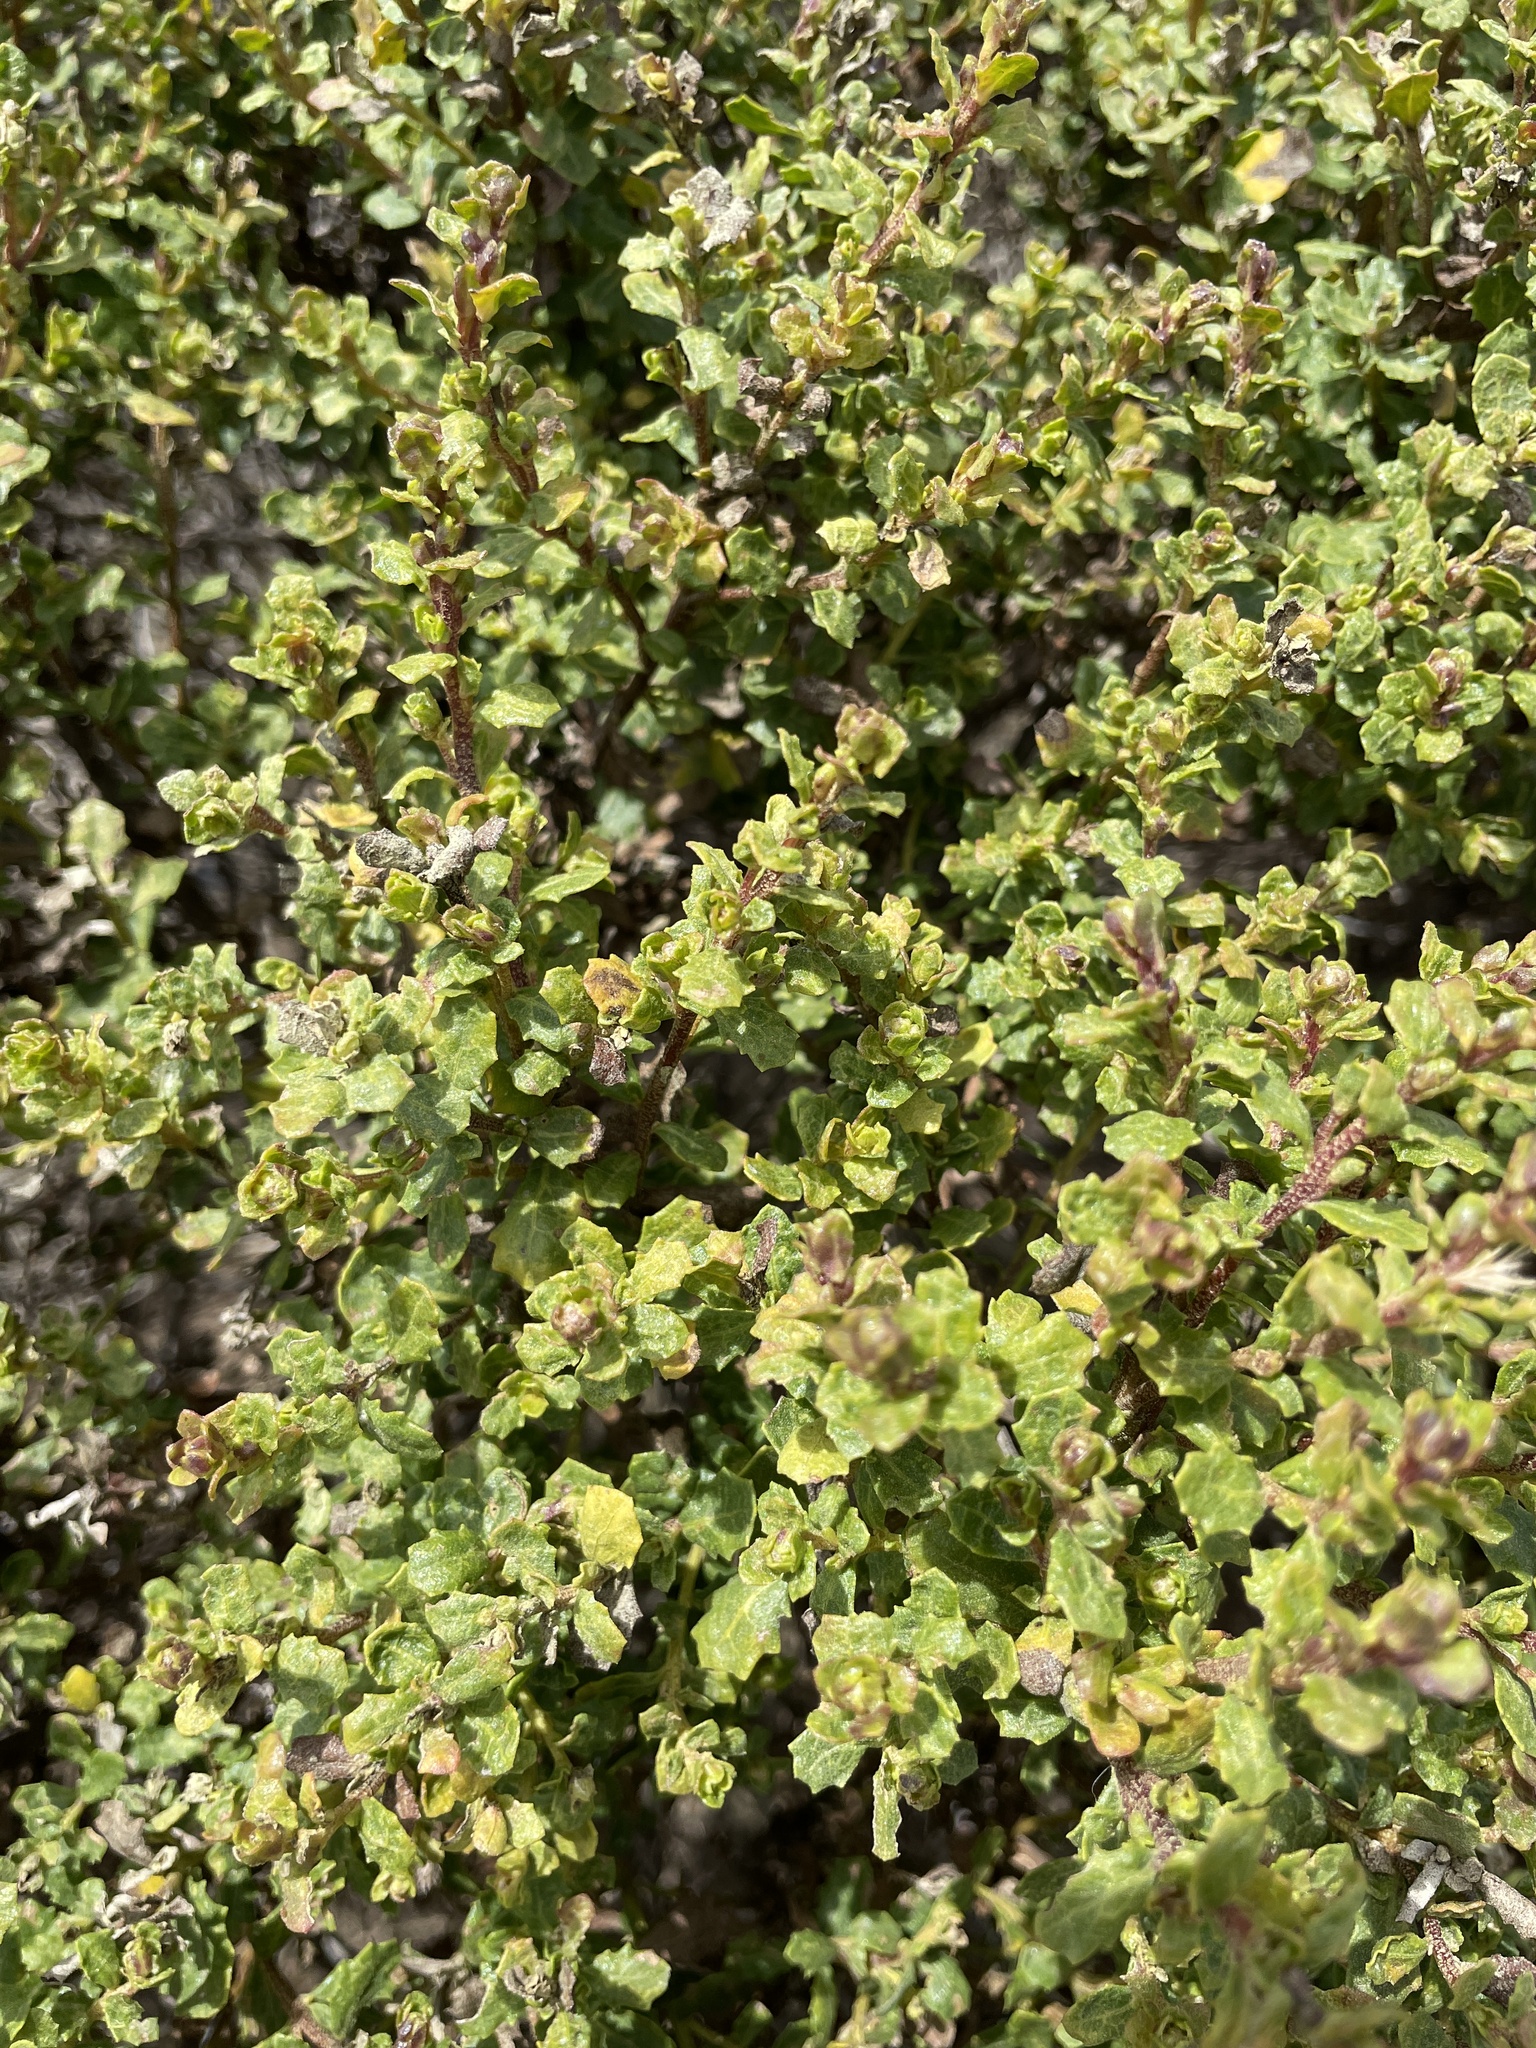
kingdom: Plantae
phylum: Tracheophyta
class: Magnoliopsida
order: Asterales
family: Asteraceae
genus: Baccharis
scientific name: Baccharis pilularis
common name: Coyotebrush
